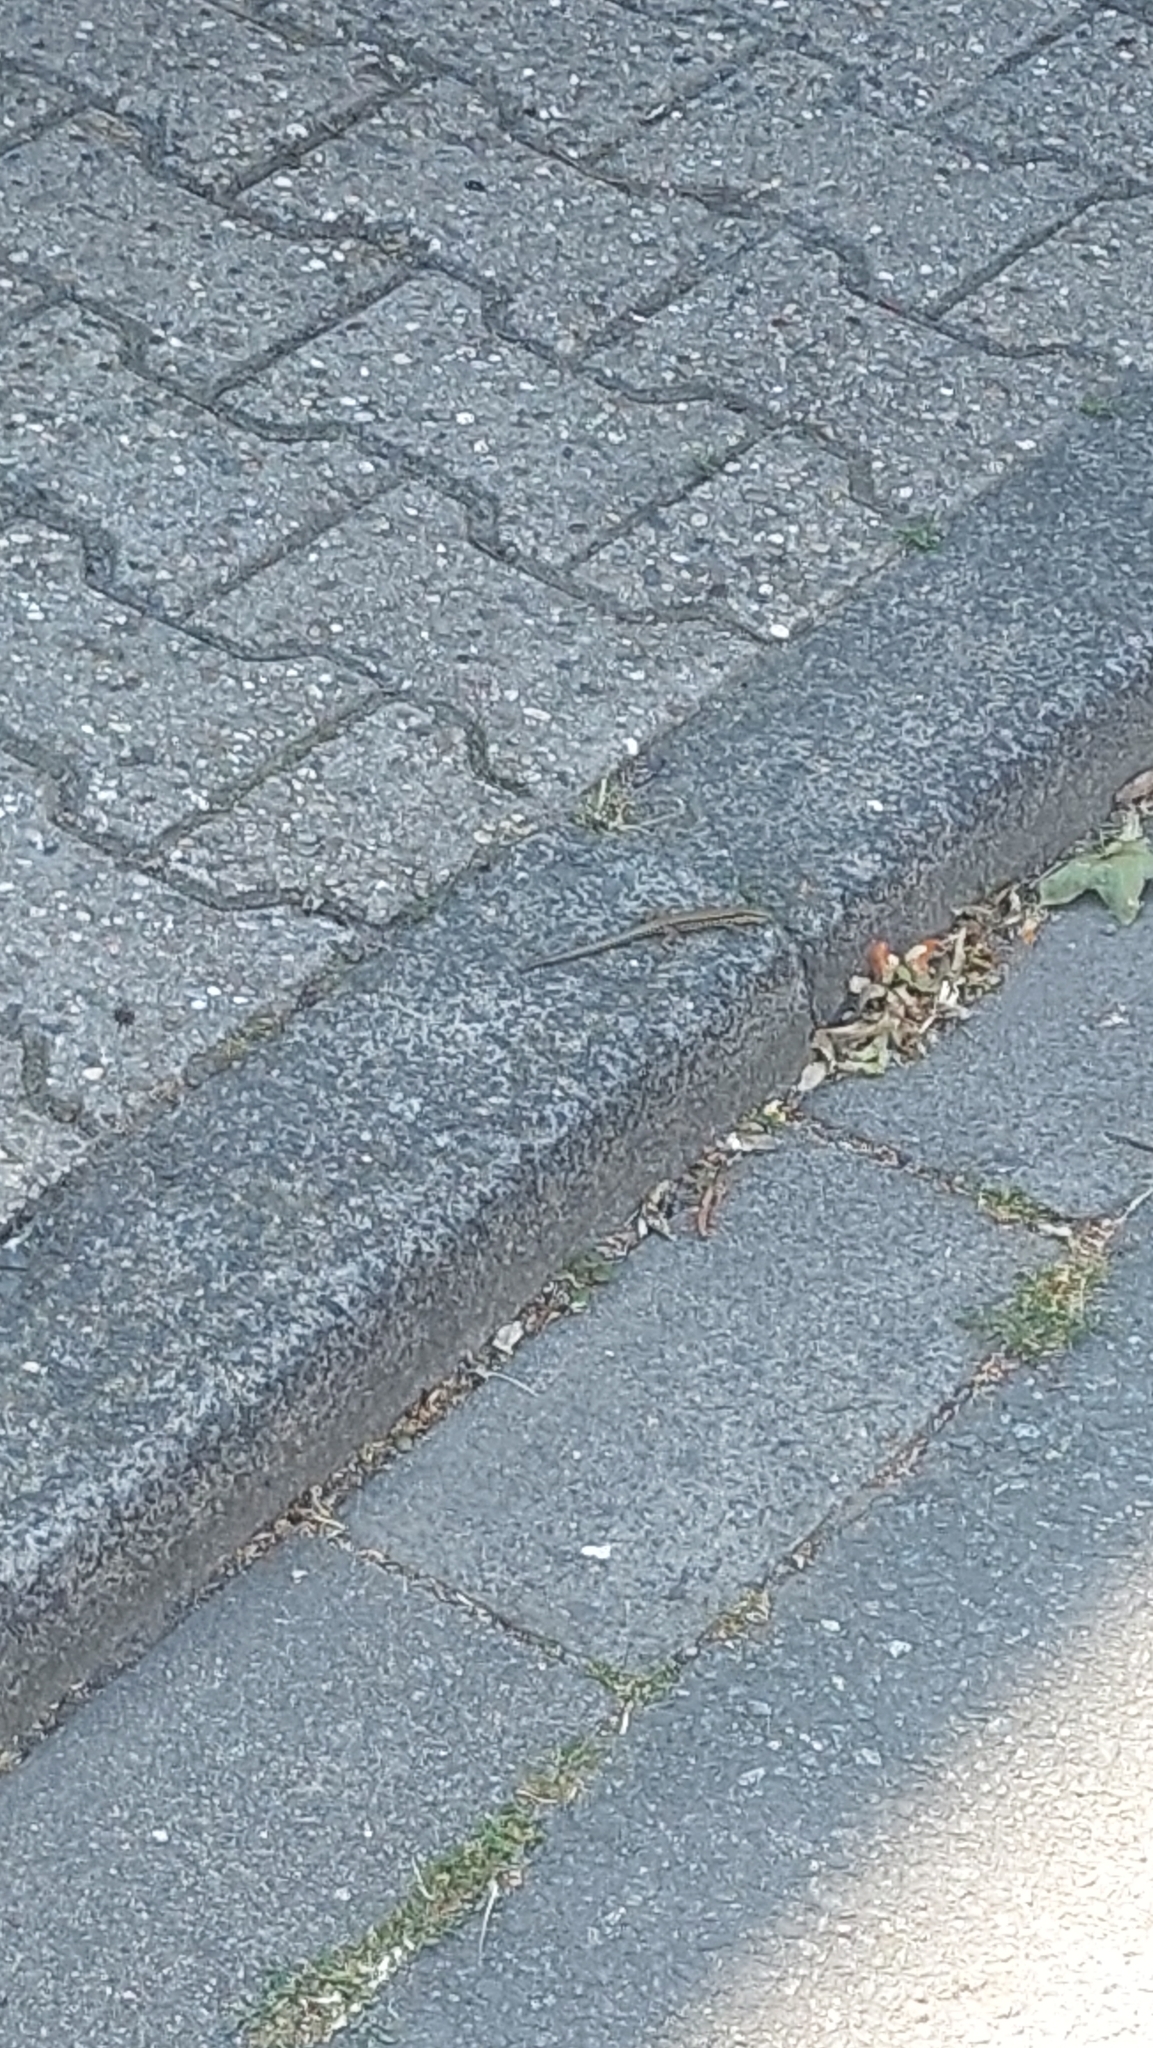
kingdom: Animalia
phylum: Chordata
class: Squamata
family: Lacertidae
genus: Podarcis
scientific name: Podarcis muralis
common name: Common wall lizard
